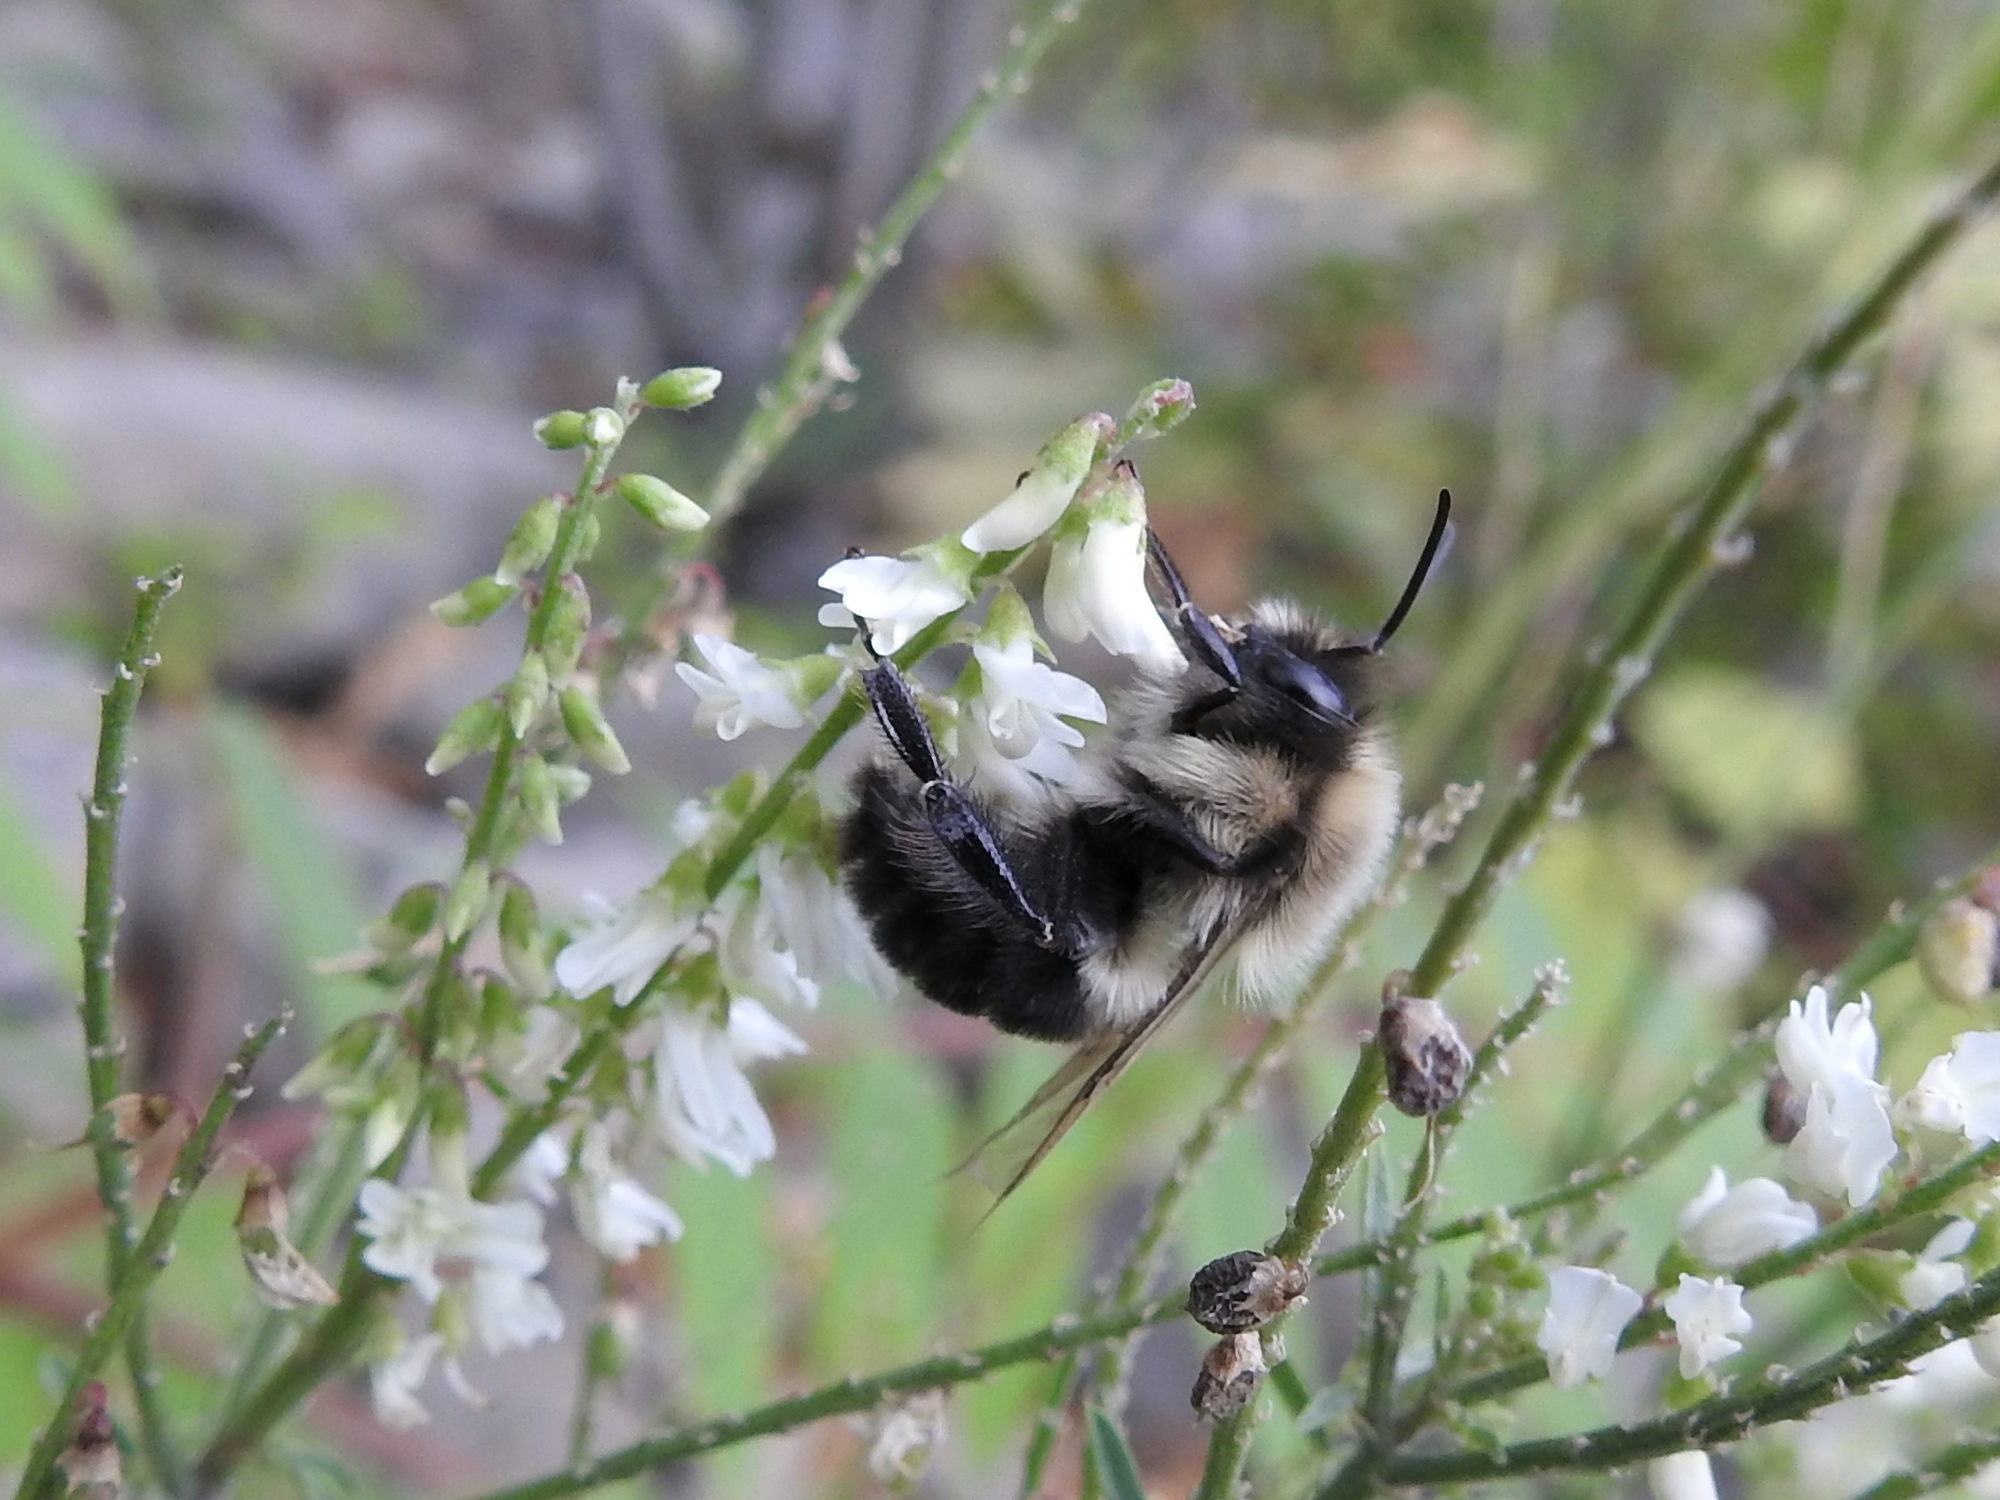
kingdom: Animalia
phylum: Arthropoda
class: Insecta
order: Hymenoptera
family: Apidae
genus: Bombus
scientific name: Bombus impatiens
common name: Common eastern bumble bee
